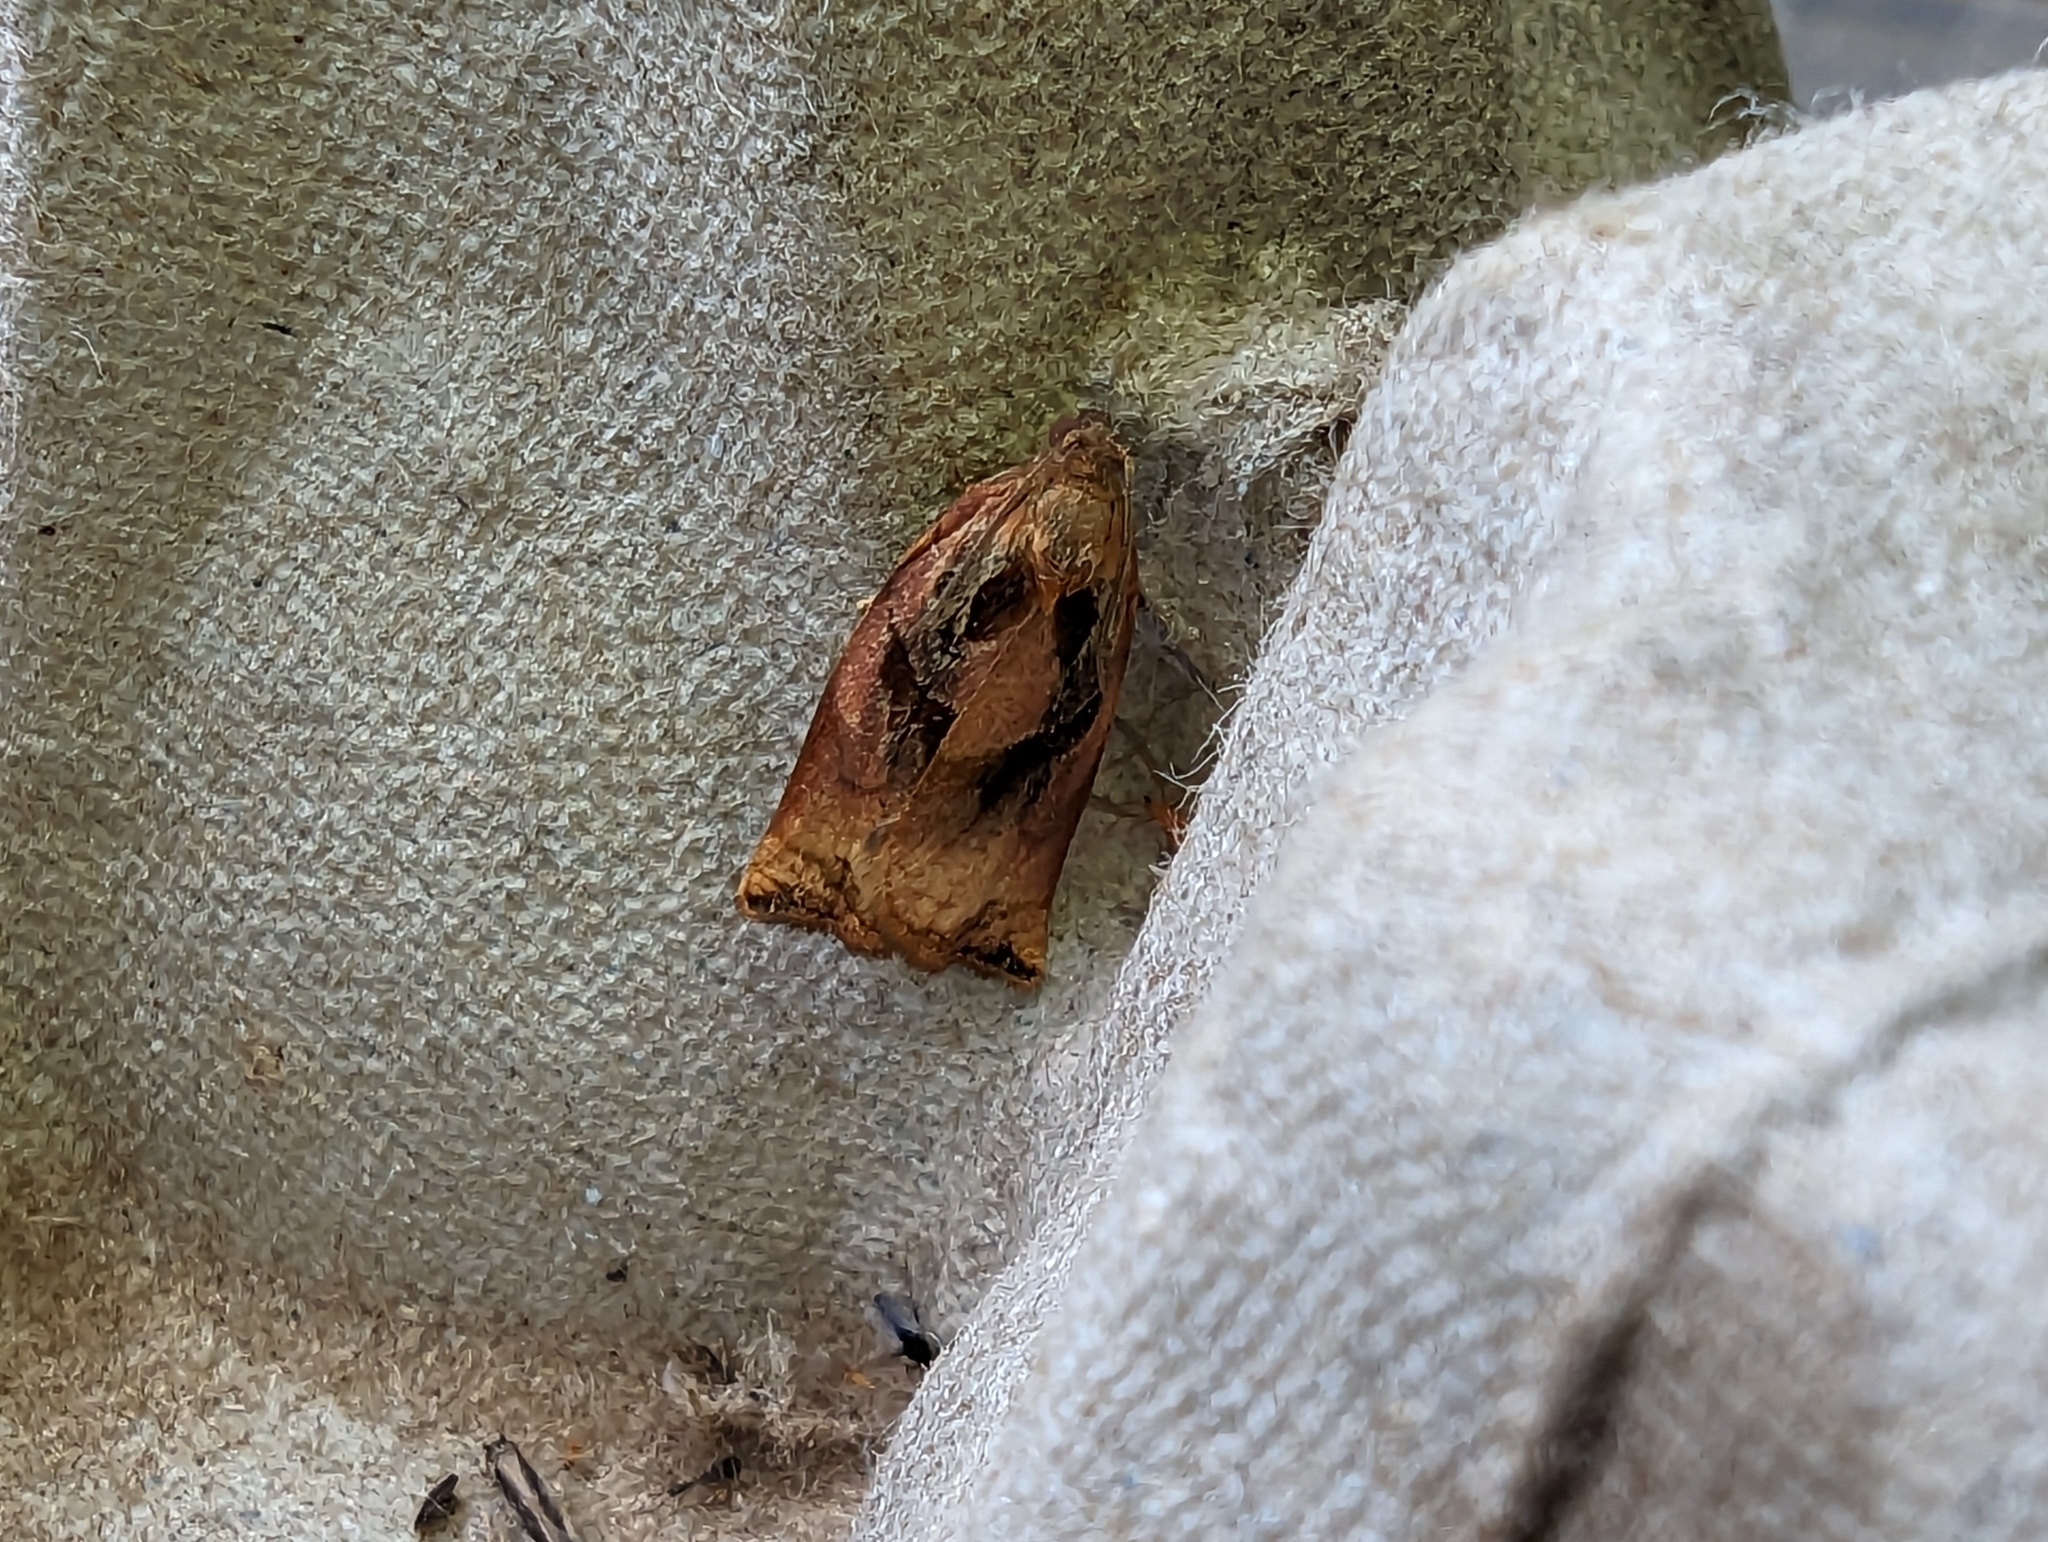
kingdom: Animalia
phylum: Arthropoda
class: Insecta
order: Lepidoptera
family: Tortricidae
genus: Archips
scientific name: Archips podana
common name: Large fruit-tree tortrix
